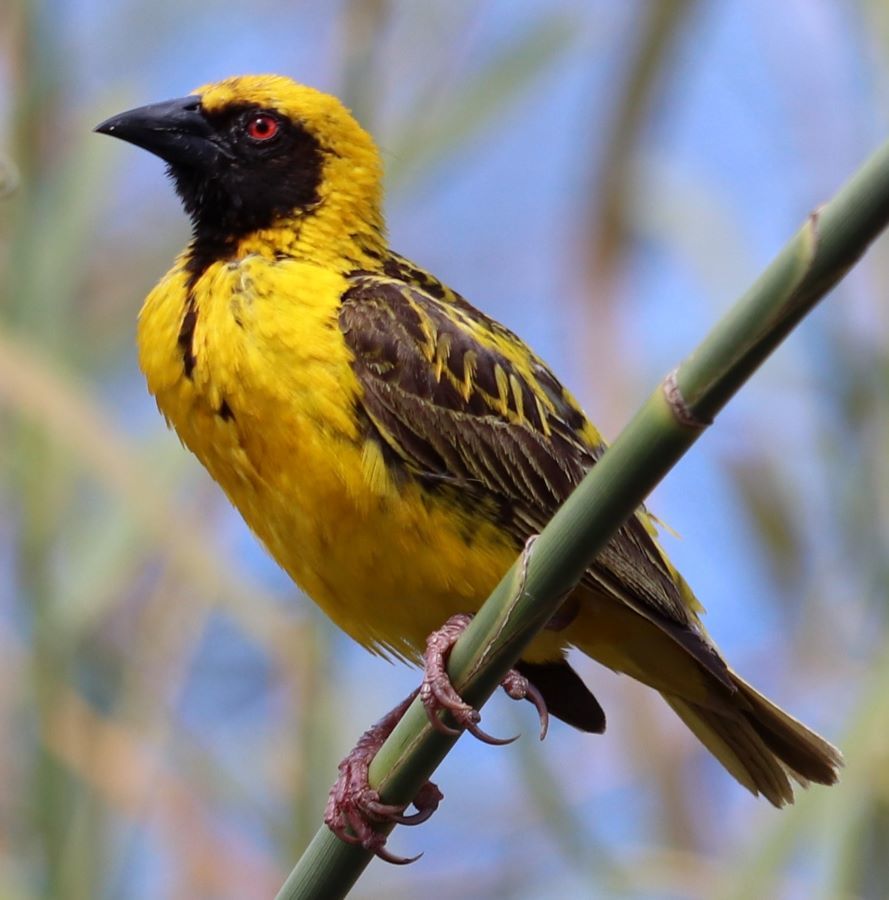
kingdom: Animalia
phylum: Chordata
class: Aves
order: Passeriformes
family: Ploceidae
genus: Ploceus
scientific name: Ploceus cucullatus
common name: Village weaver
